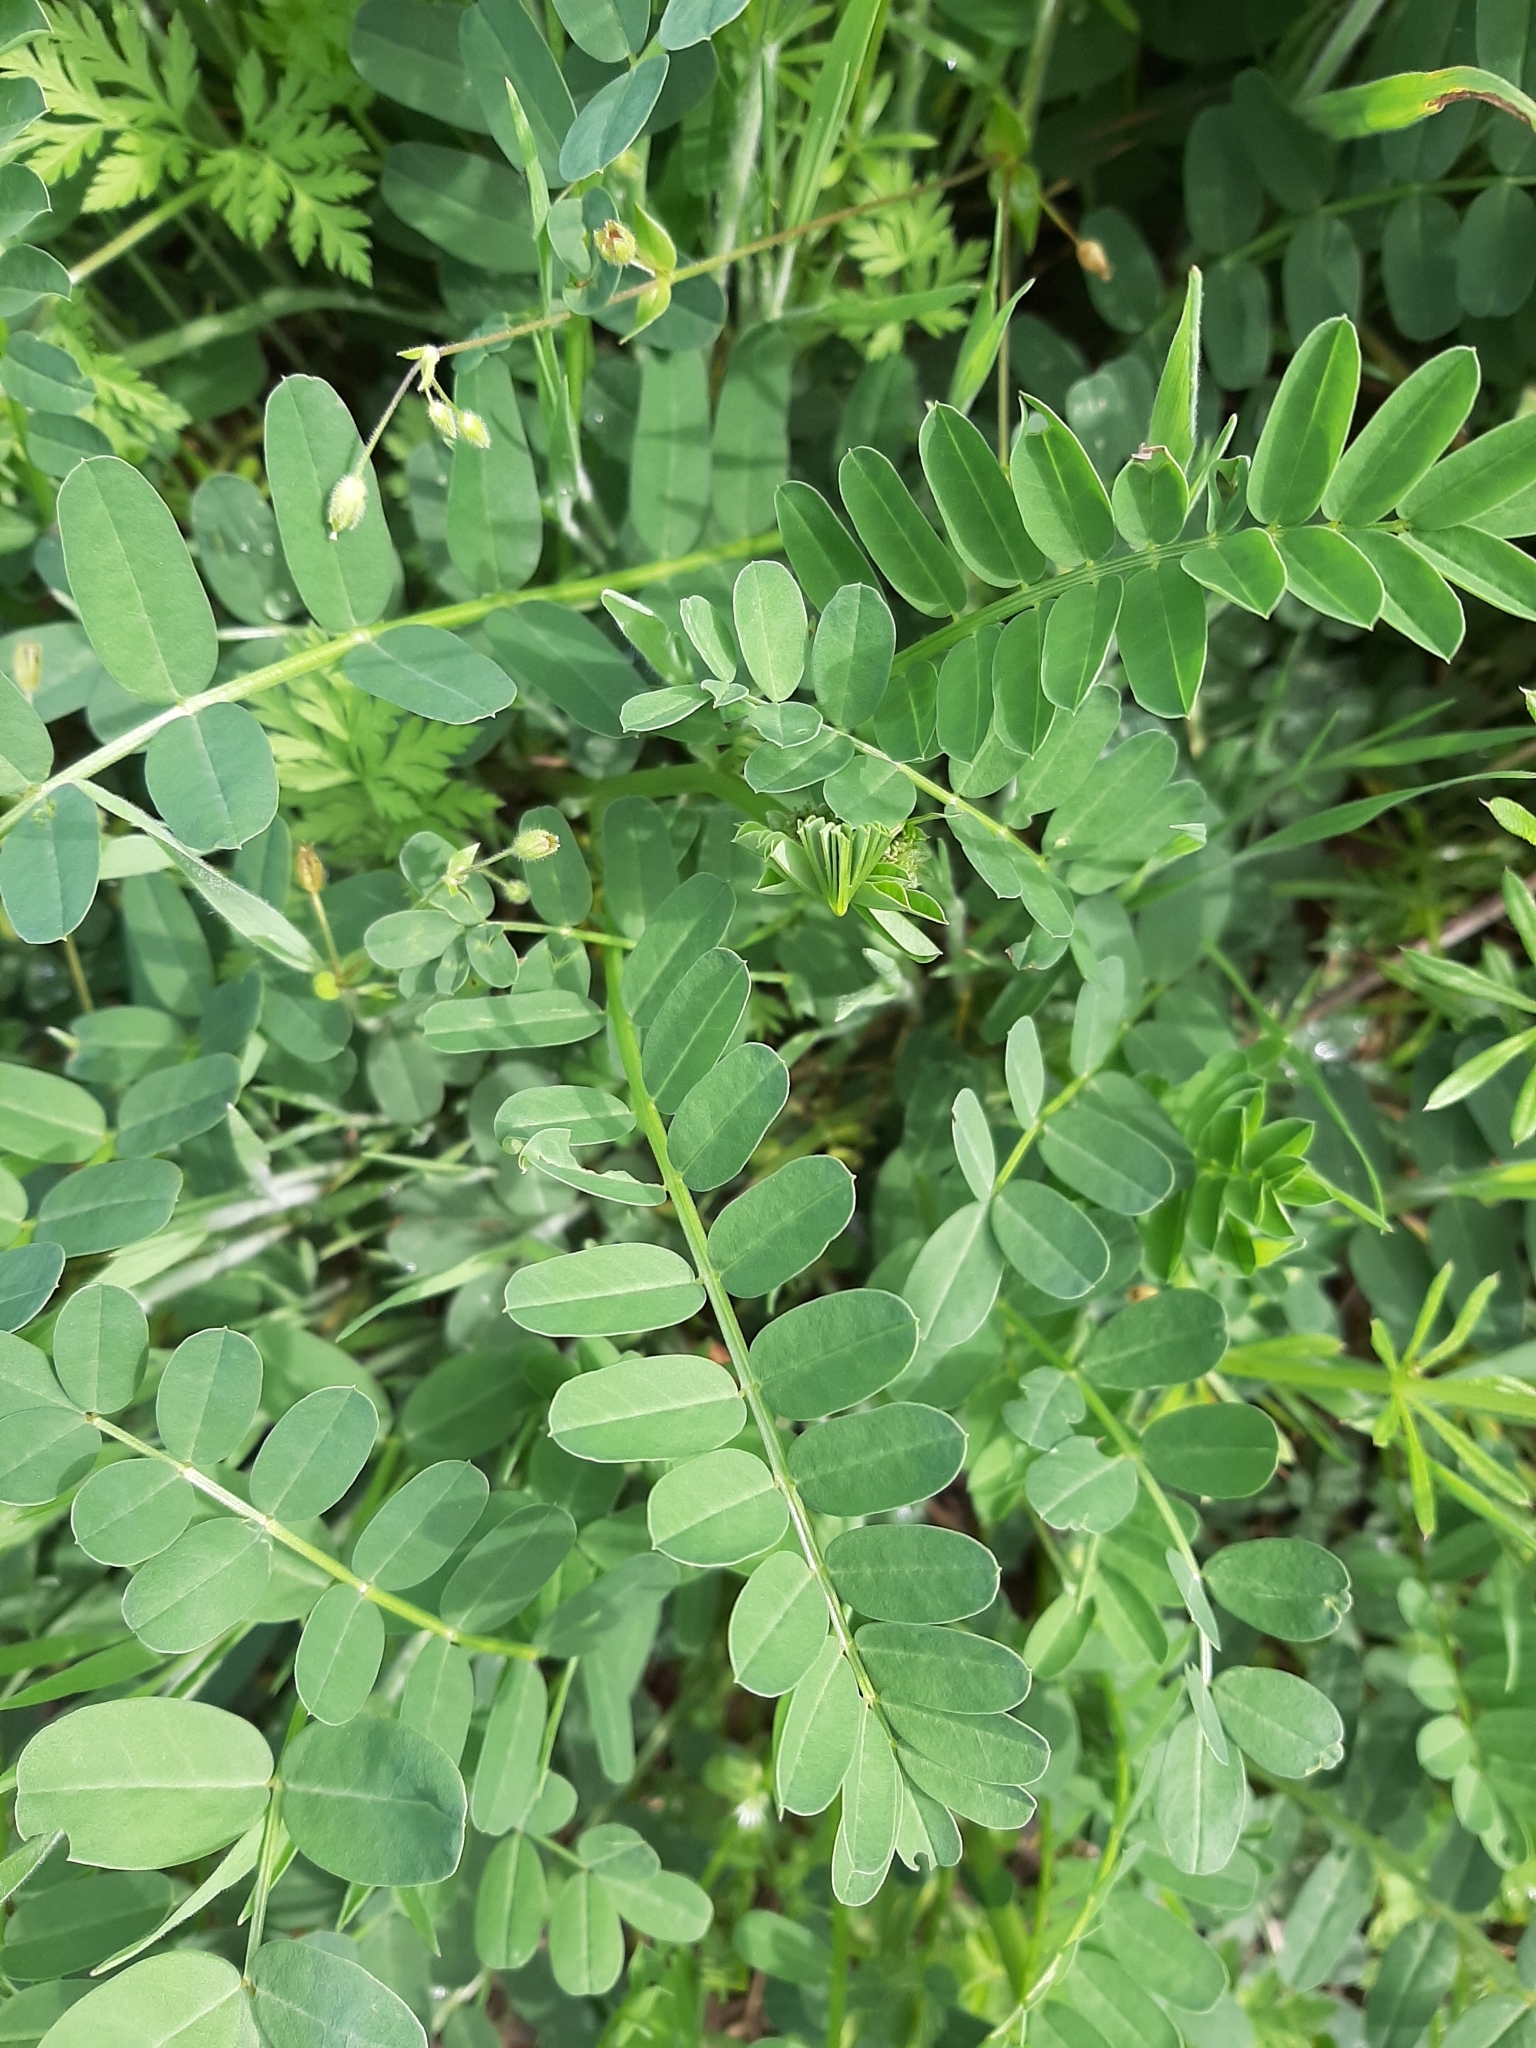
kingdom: Plantae
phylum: Tracheophyta
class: Magnoliopsida
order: Fabales
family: Fabaceae
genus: Coronilla
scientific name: Coronilla varia
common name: Crownvetch
